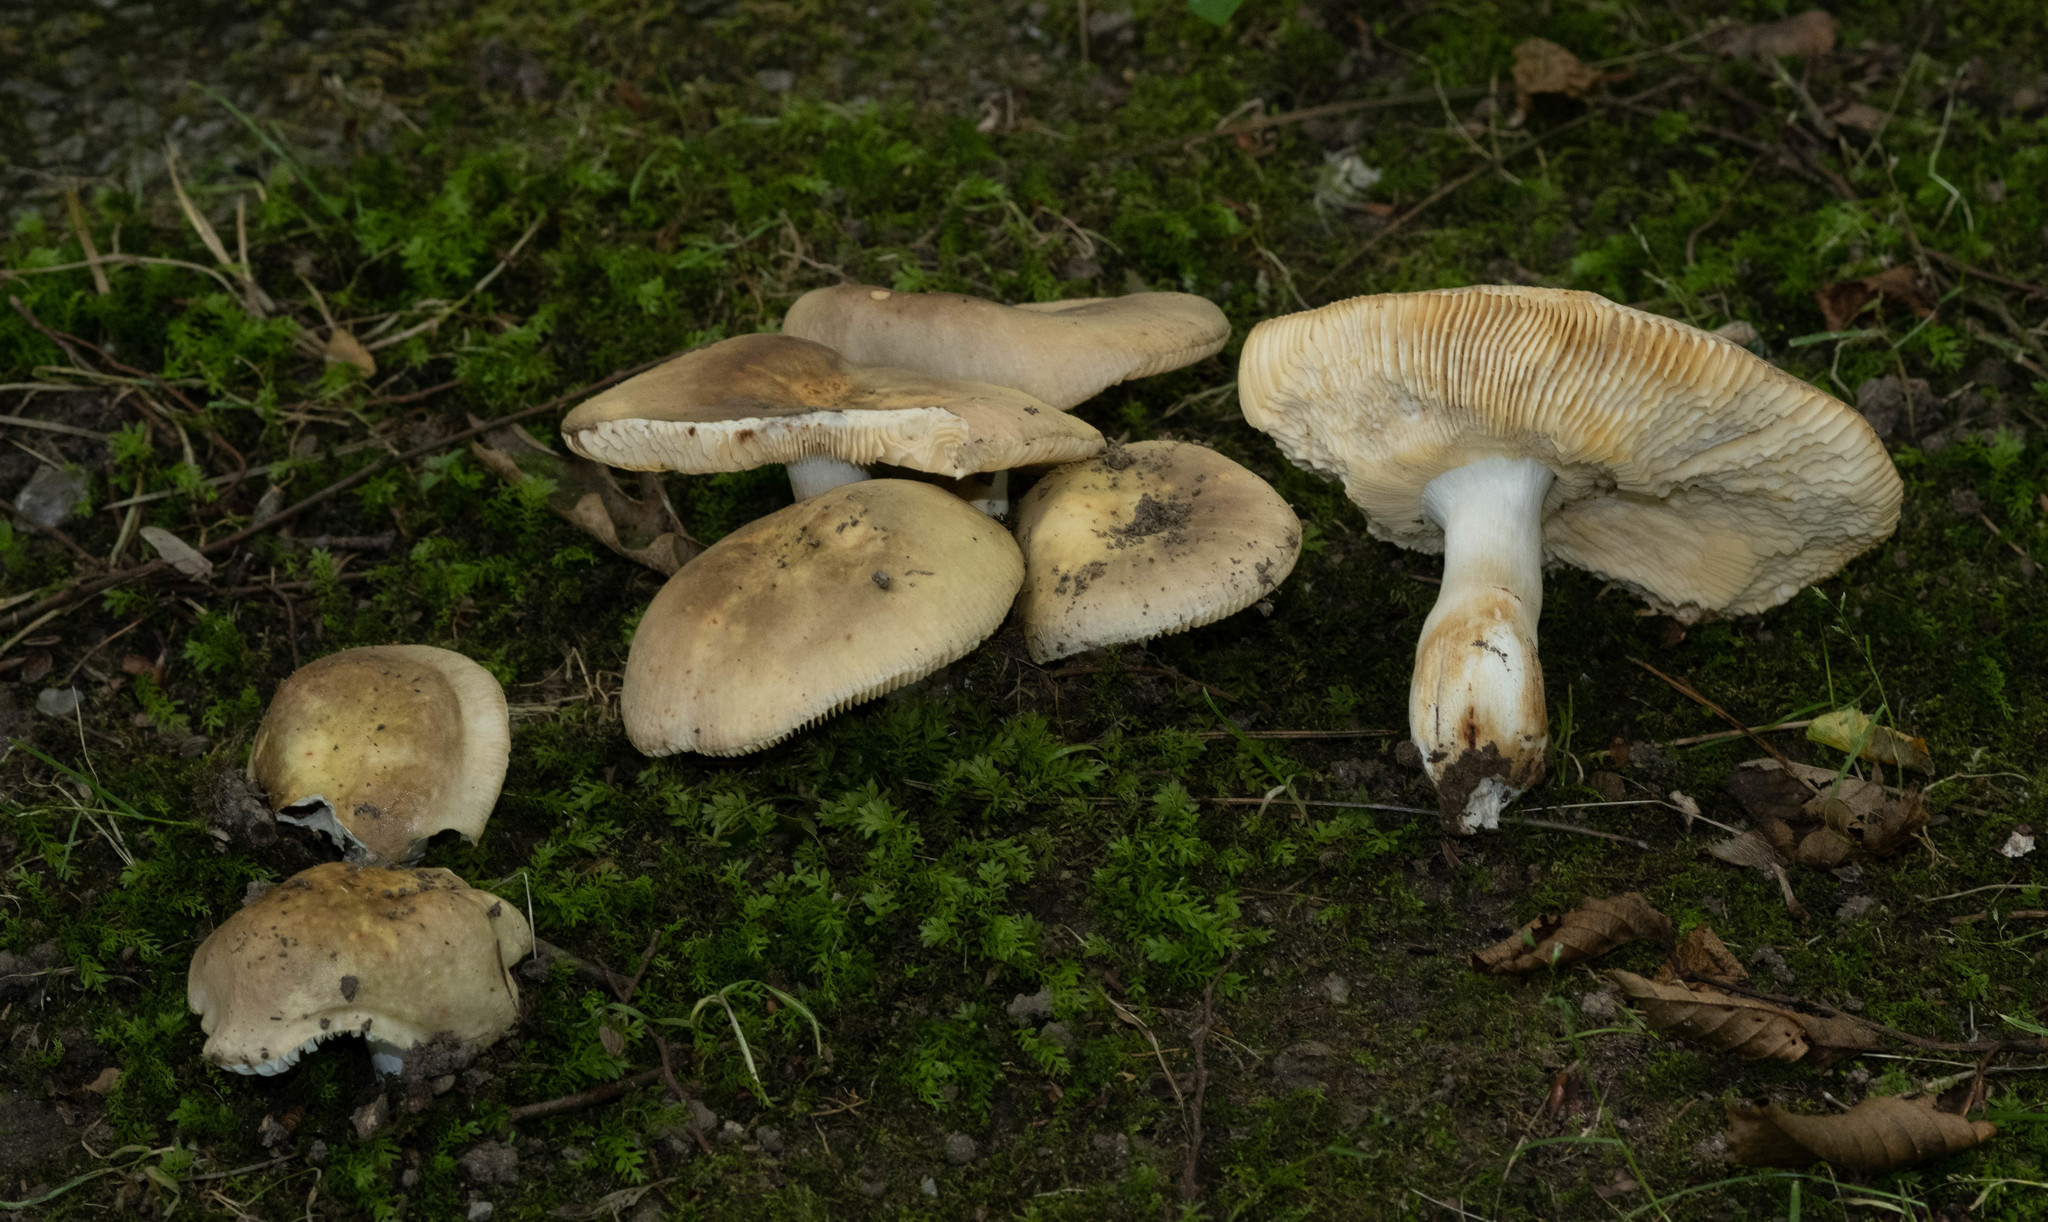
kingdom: Fungi
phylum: Basidiomycota
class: Agaricomycetes
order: Russulales
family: Russulaceae
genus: Russula
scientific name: Russula carpini
